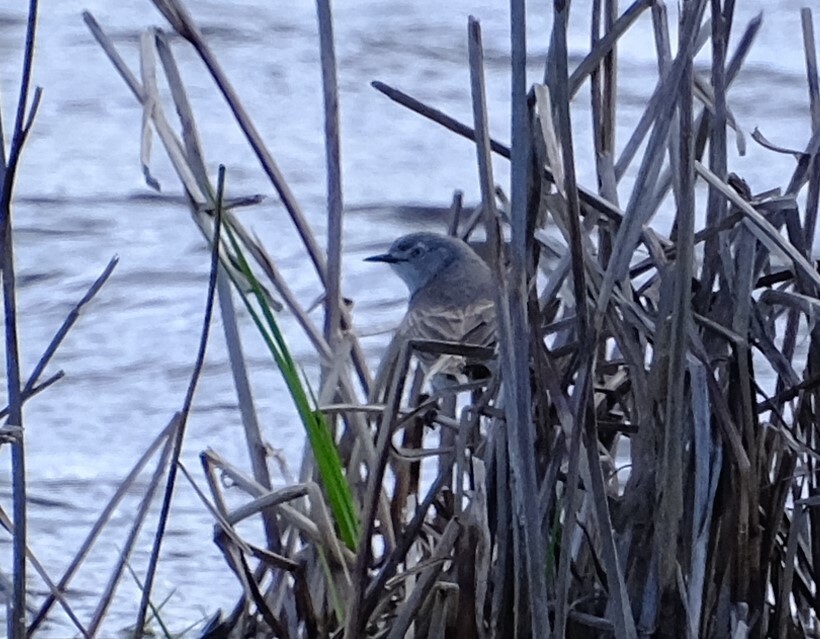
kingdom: Animalia
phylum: Chordata
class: Aves
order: Passeriformes
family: Meliphagidae
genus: Epthianura
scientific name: Epthianura albifrons
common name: White-fronted chat
